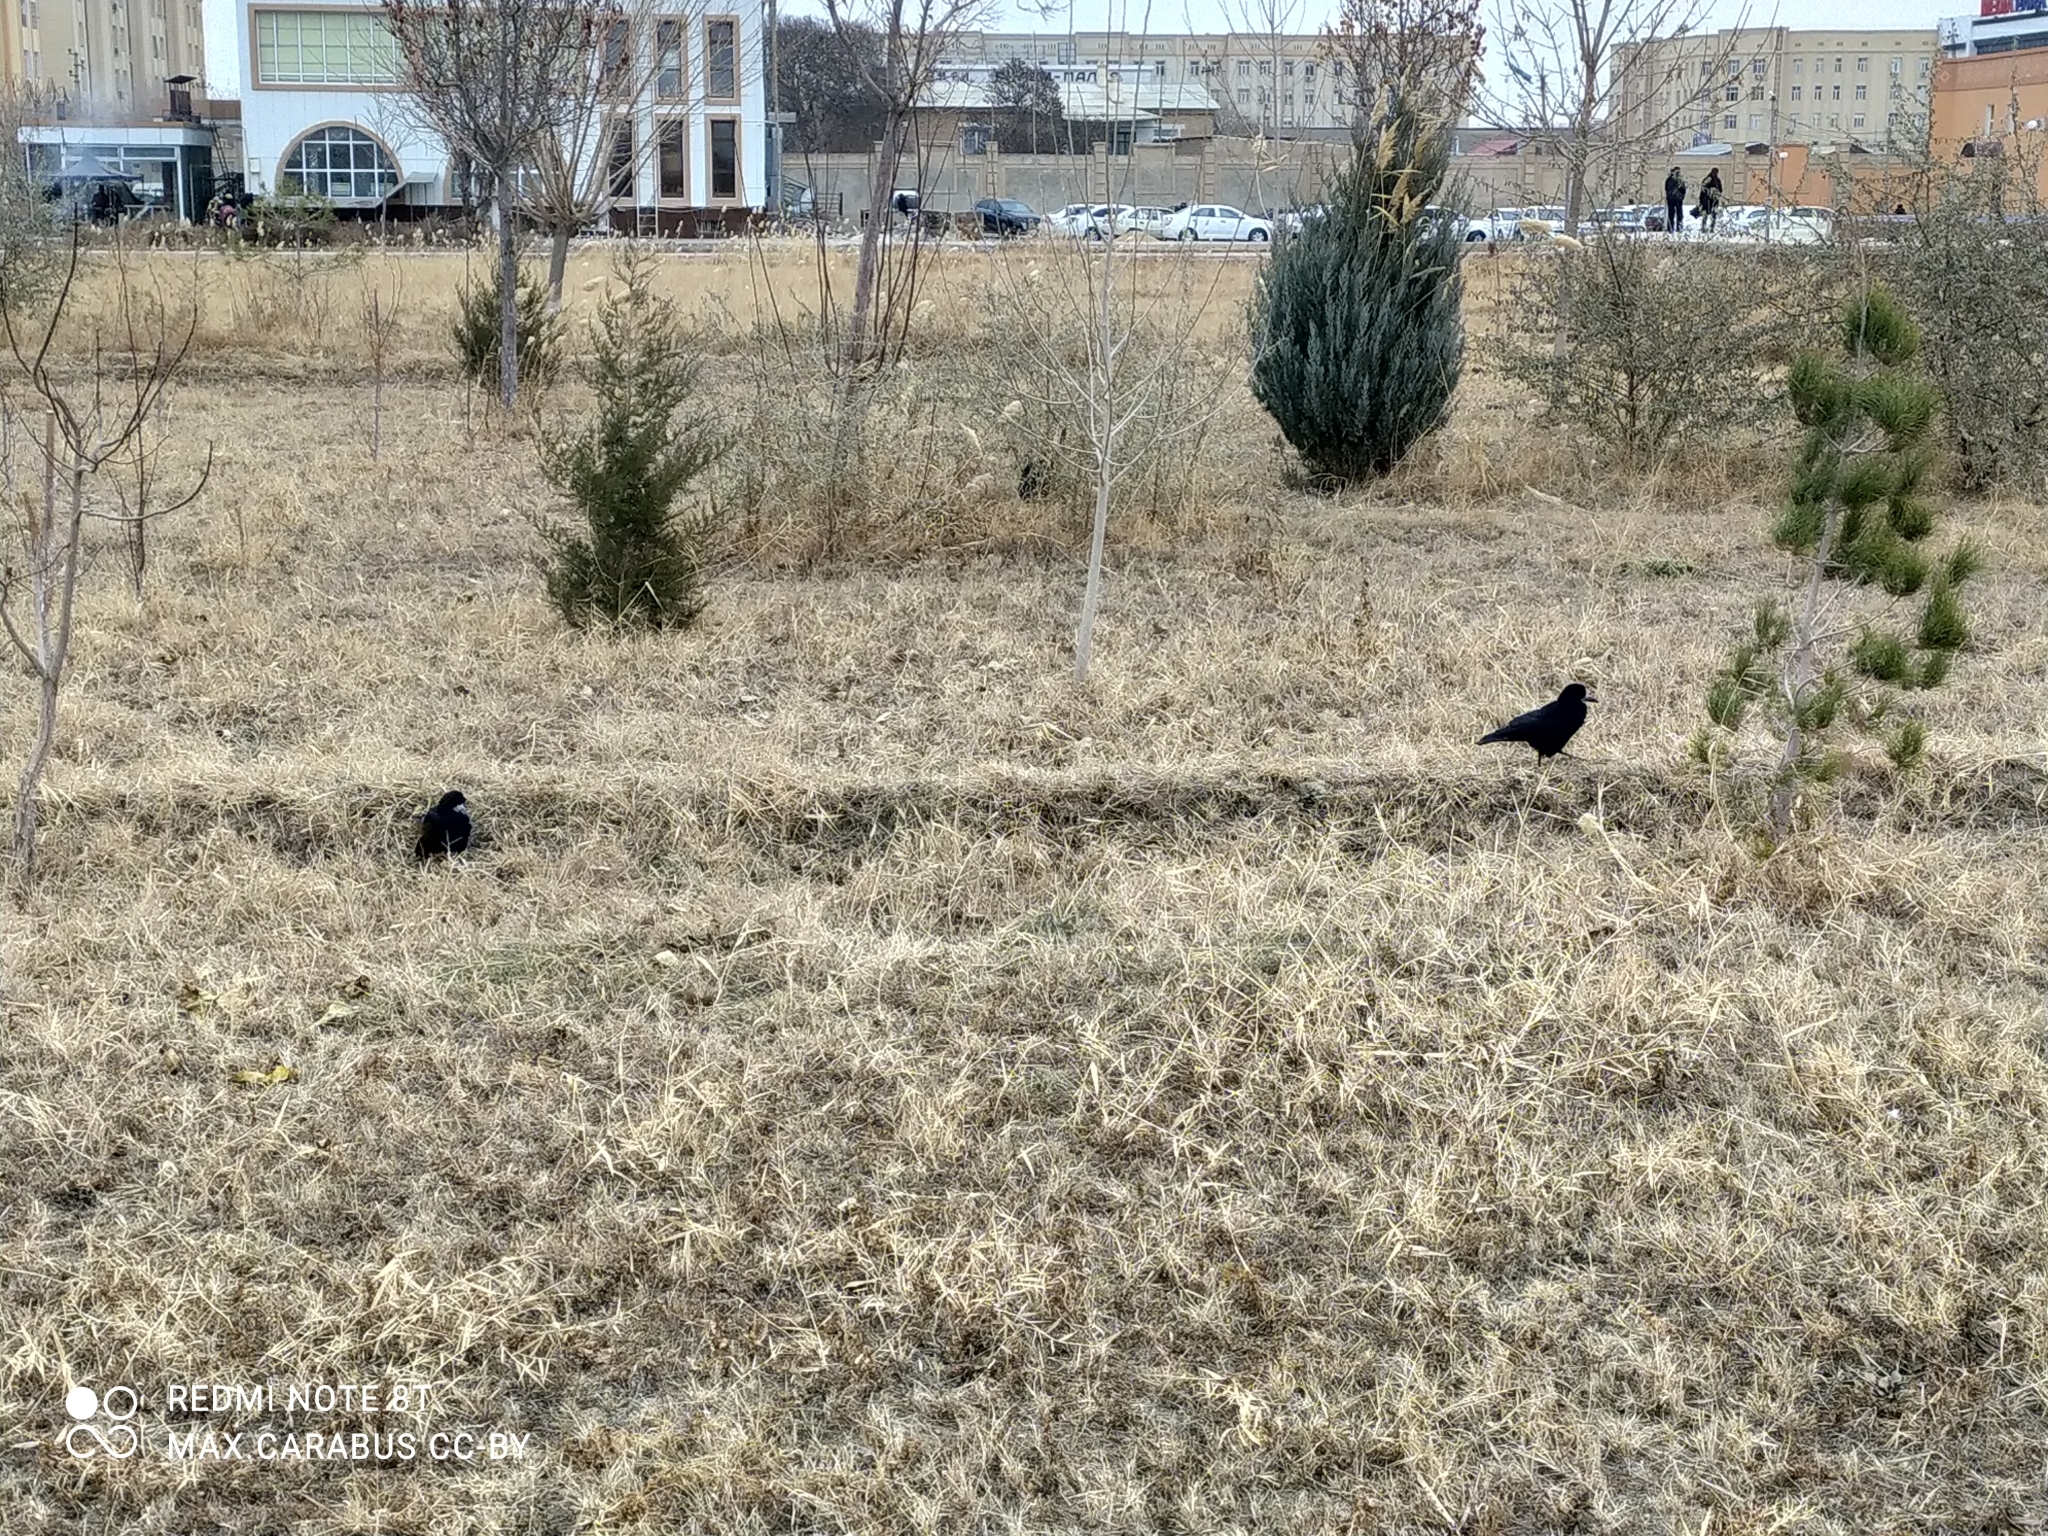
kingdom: Animalia
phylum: Chordata
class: Aves
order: Passeriformes
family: Corvidae
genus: Corvus
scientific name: Corvus frugilegus
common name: Rook
